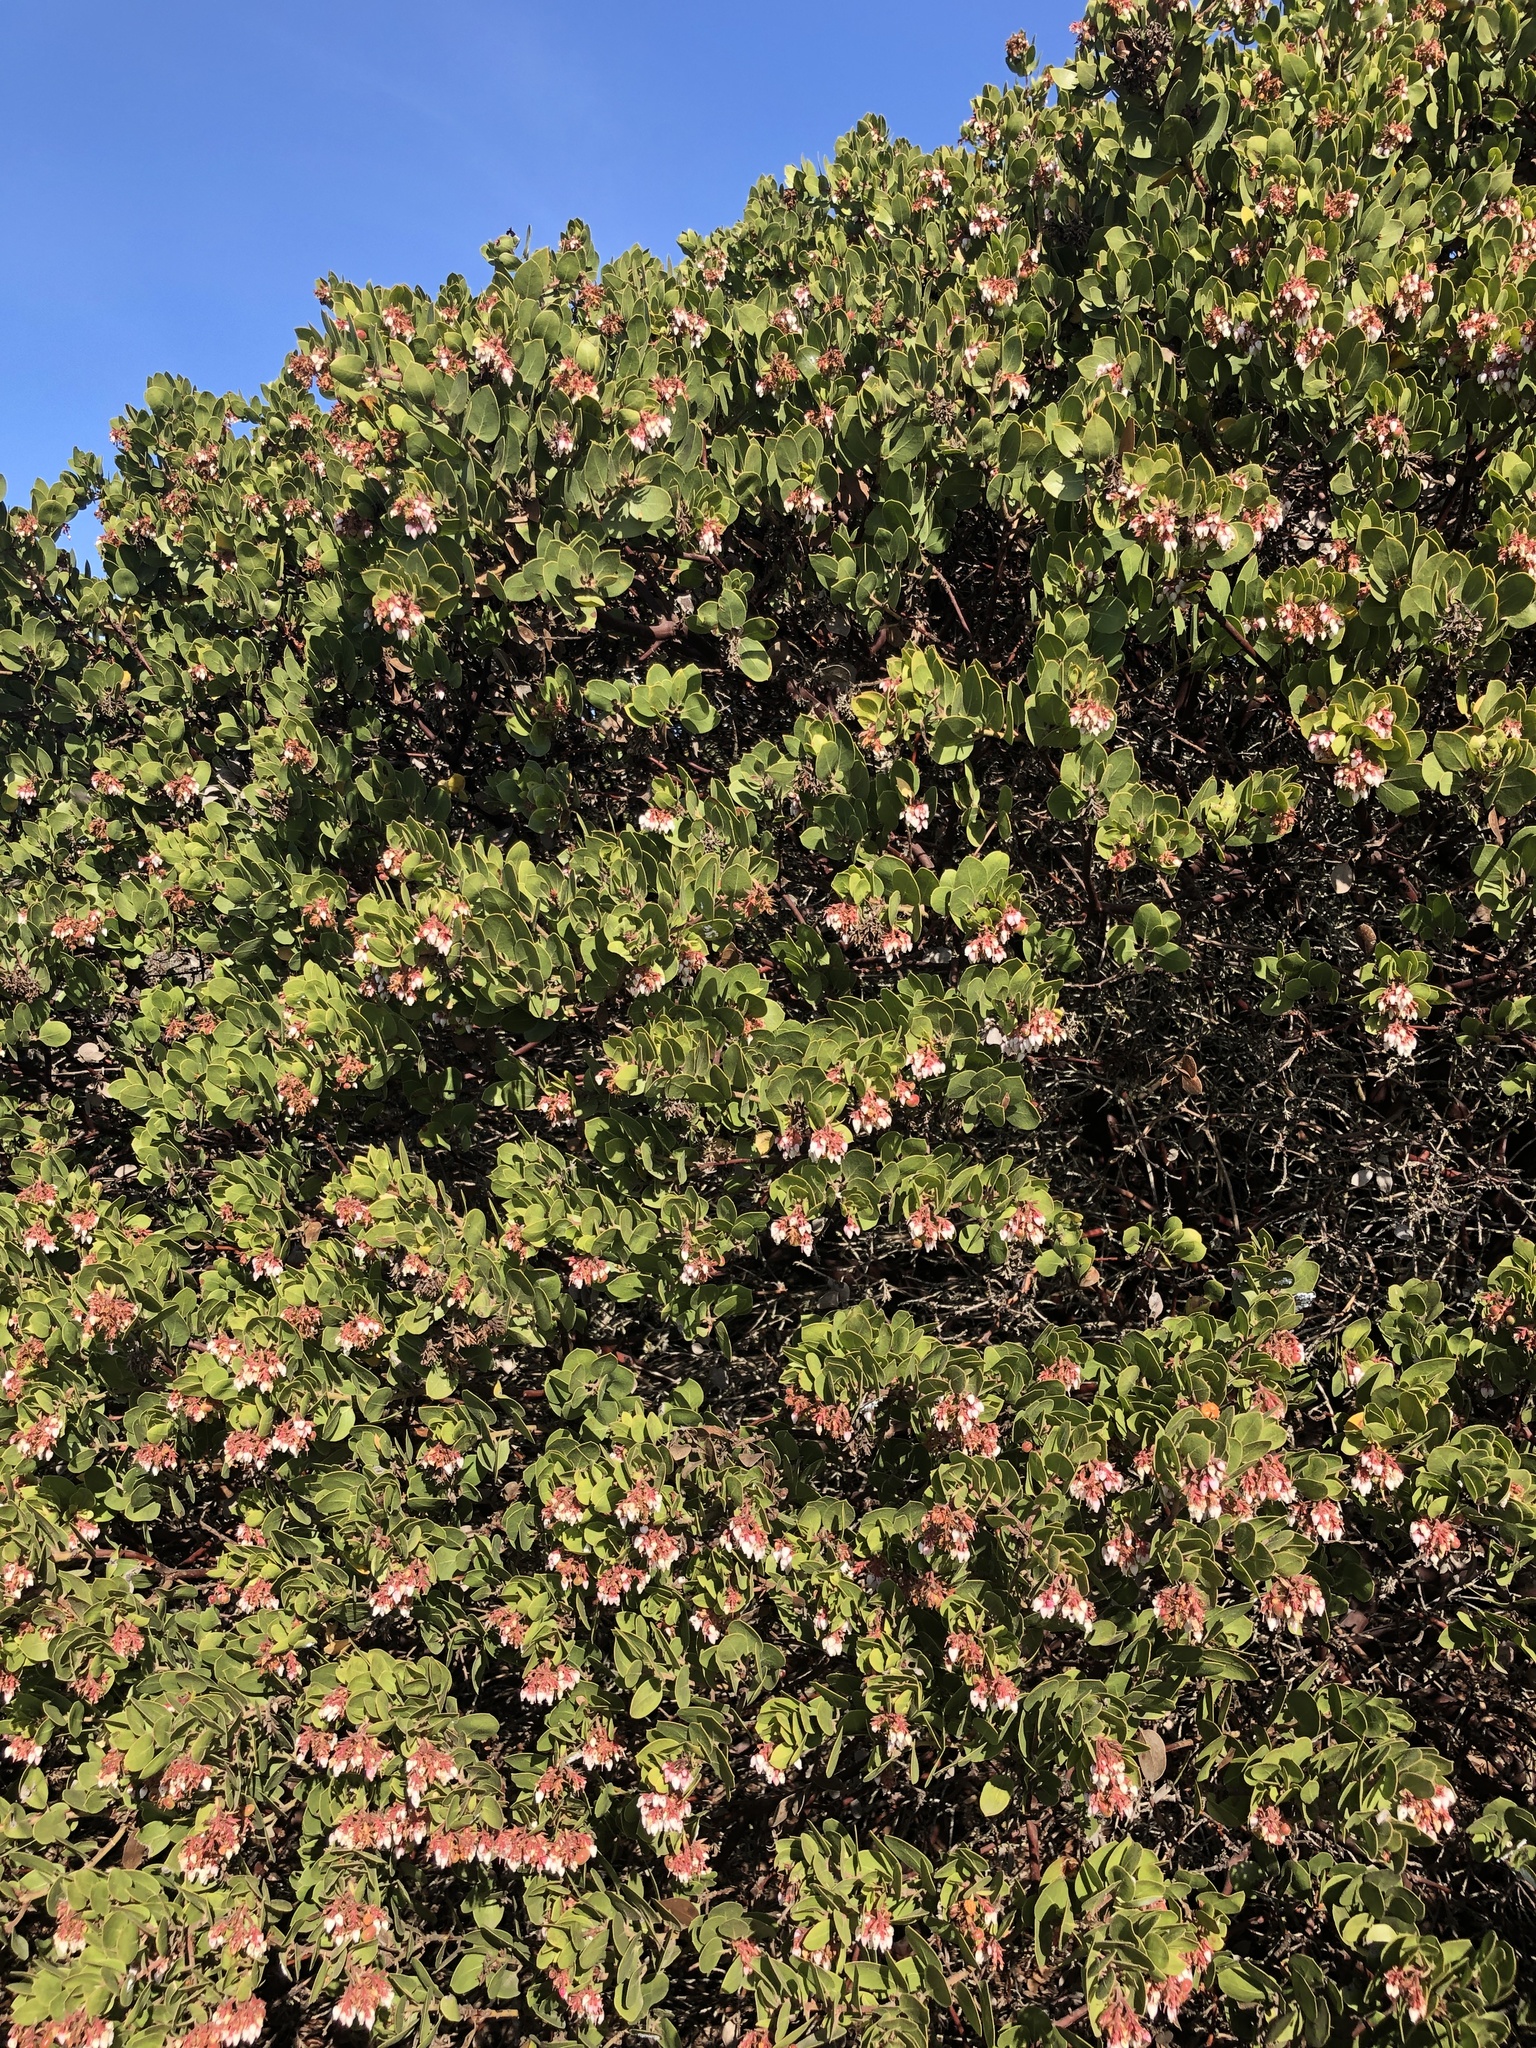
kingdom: Plantae
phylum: Tracheophyta
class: Magnoliopsida
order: Ericales
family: Ericaceae
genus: Arctostaphylos
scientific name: Arctostaphylos montereyensis
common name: Monterey manzanita
